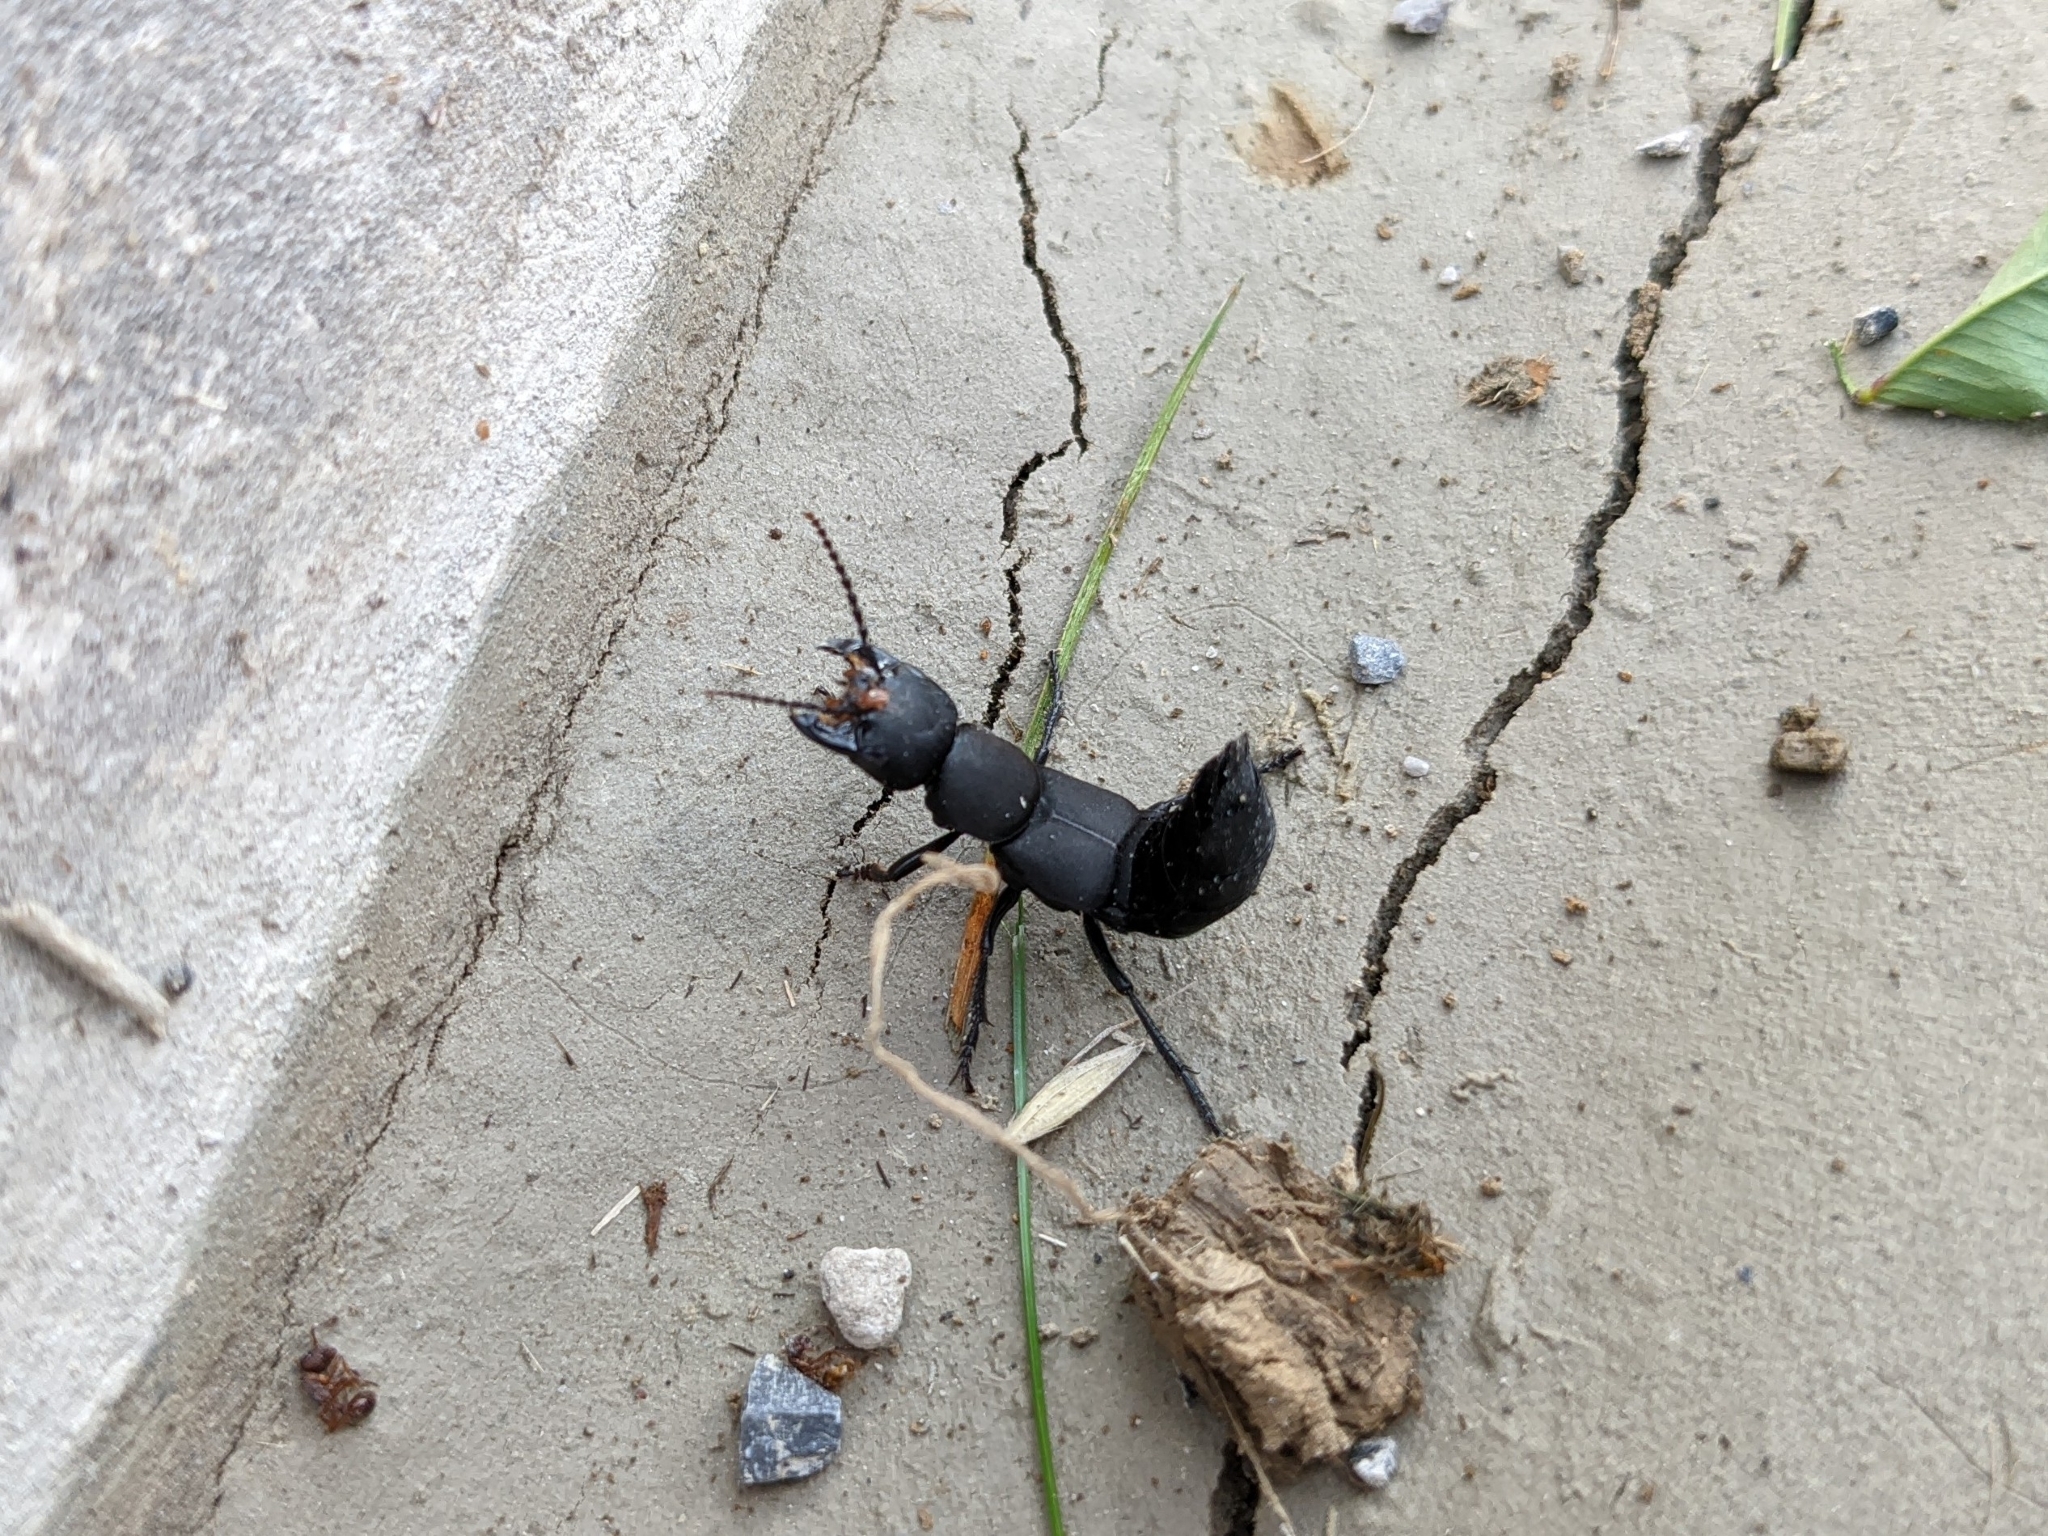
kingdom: Animalia
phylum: Arthropoda
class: Insecta
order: Coleoptera
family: Staphylinidae
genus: Ocypus
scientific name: Ocypus olens
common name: Devil's coach-horse
